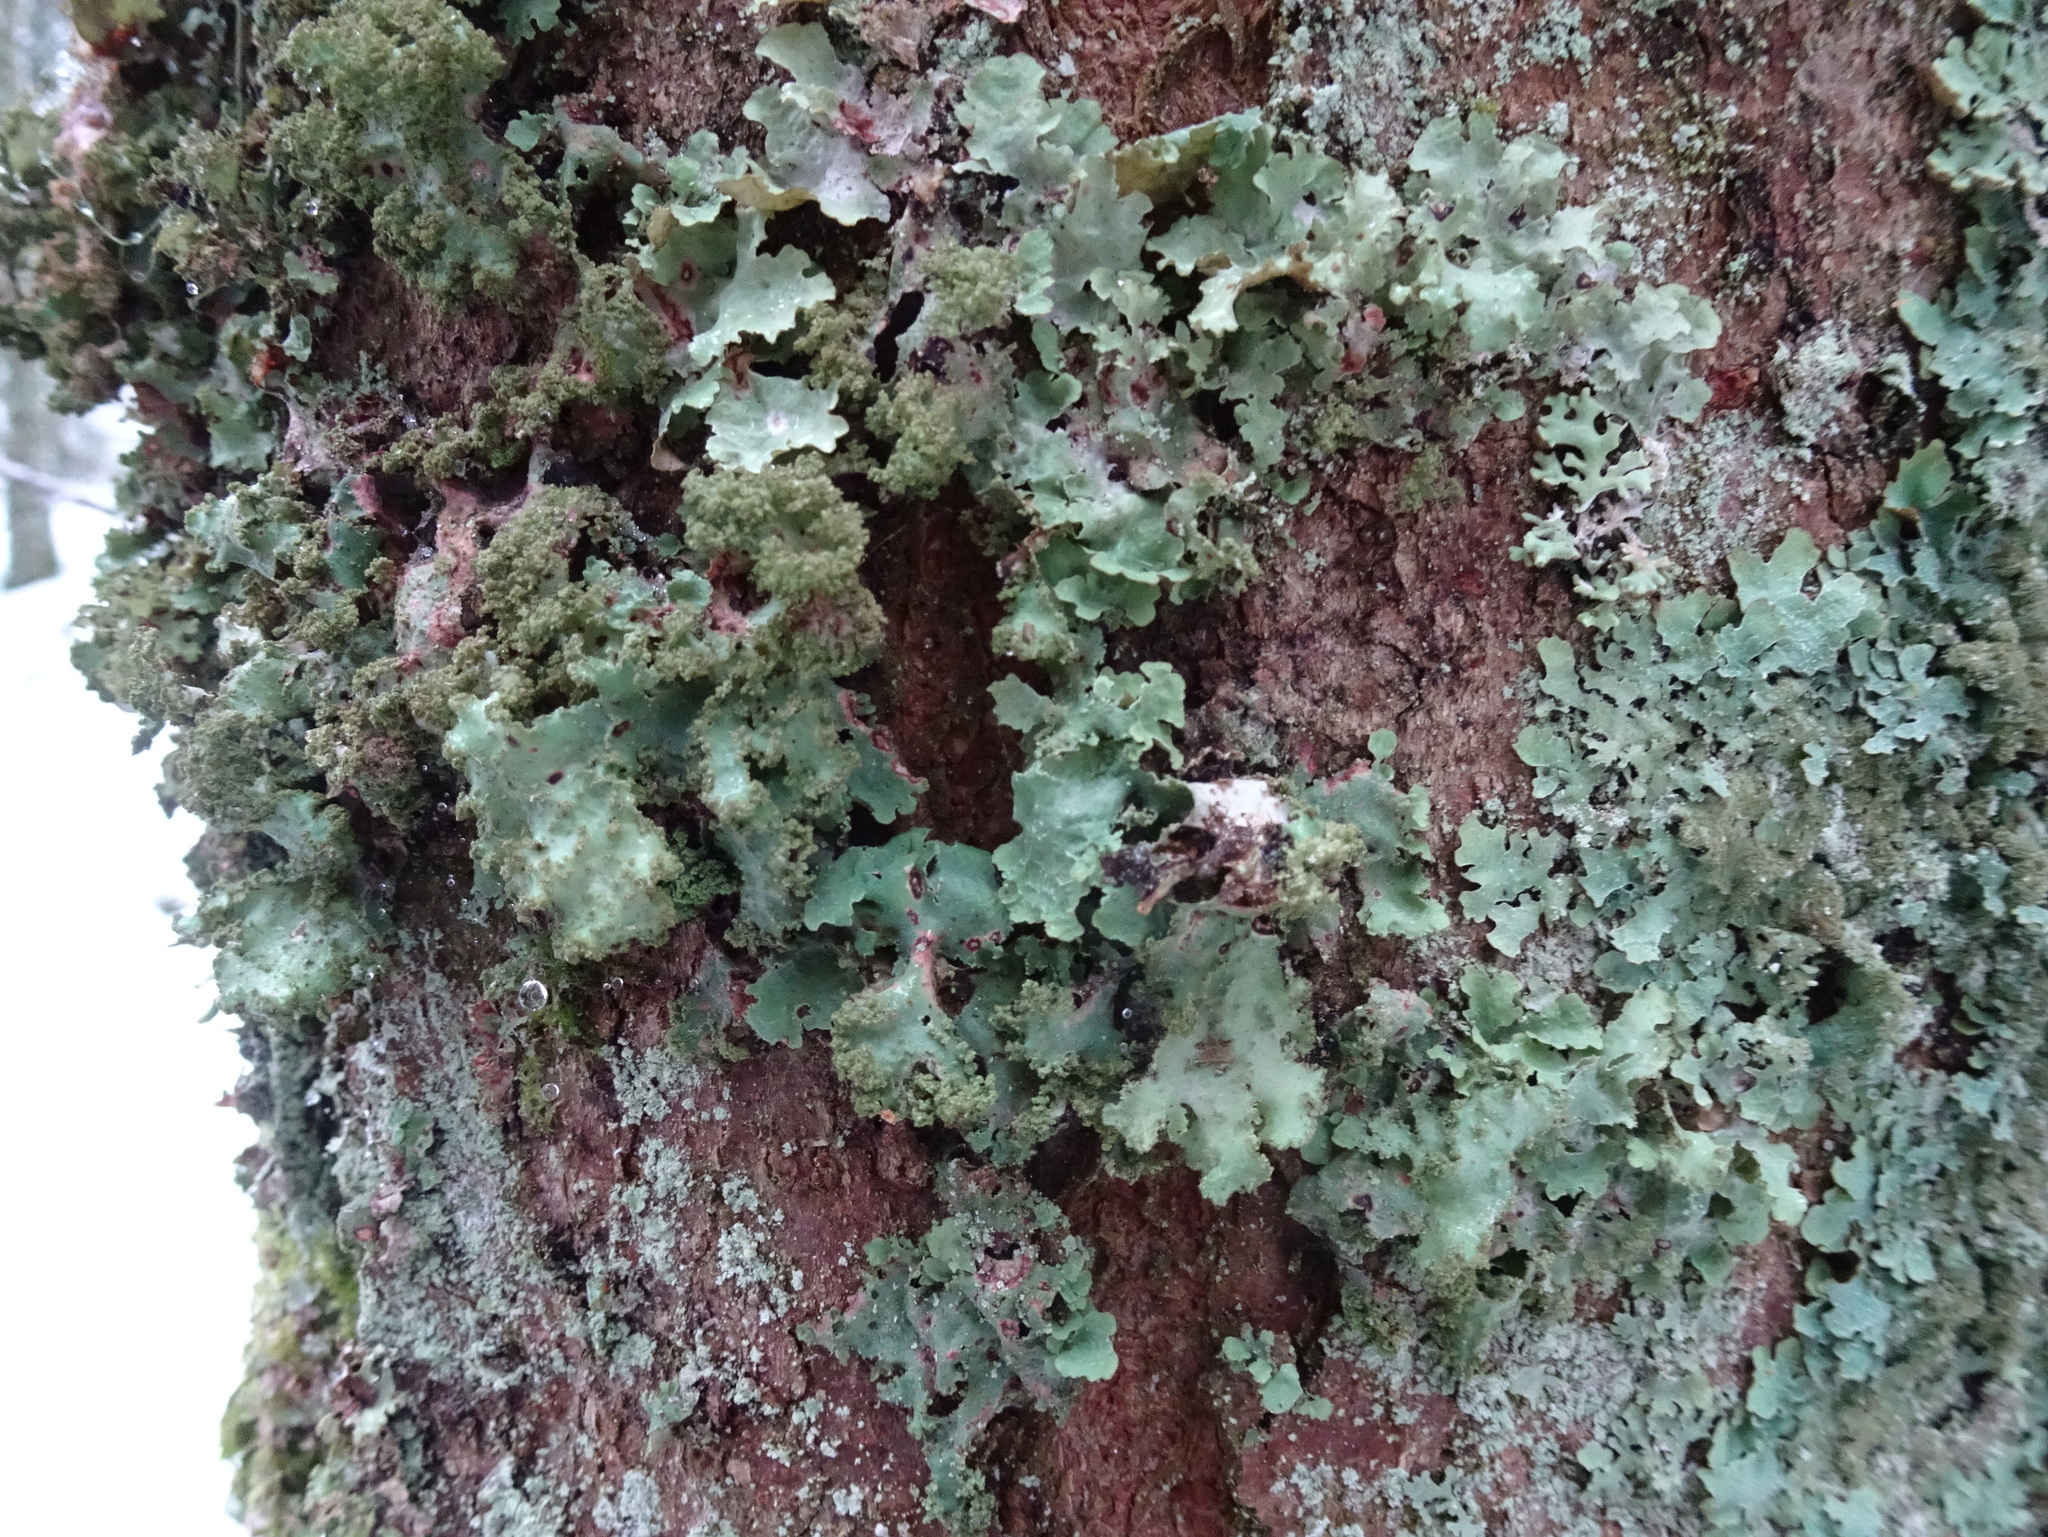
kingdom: Fungi
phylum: Ascomycota
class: Lecanoromycetes
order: Lecanorales
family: Parmeliaceae
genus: Platismatia
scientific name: Platismatia glauca
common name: Varied rag lichen
